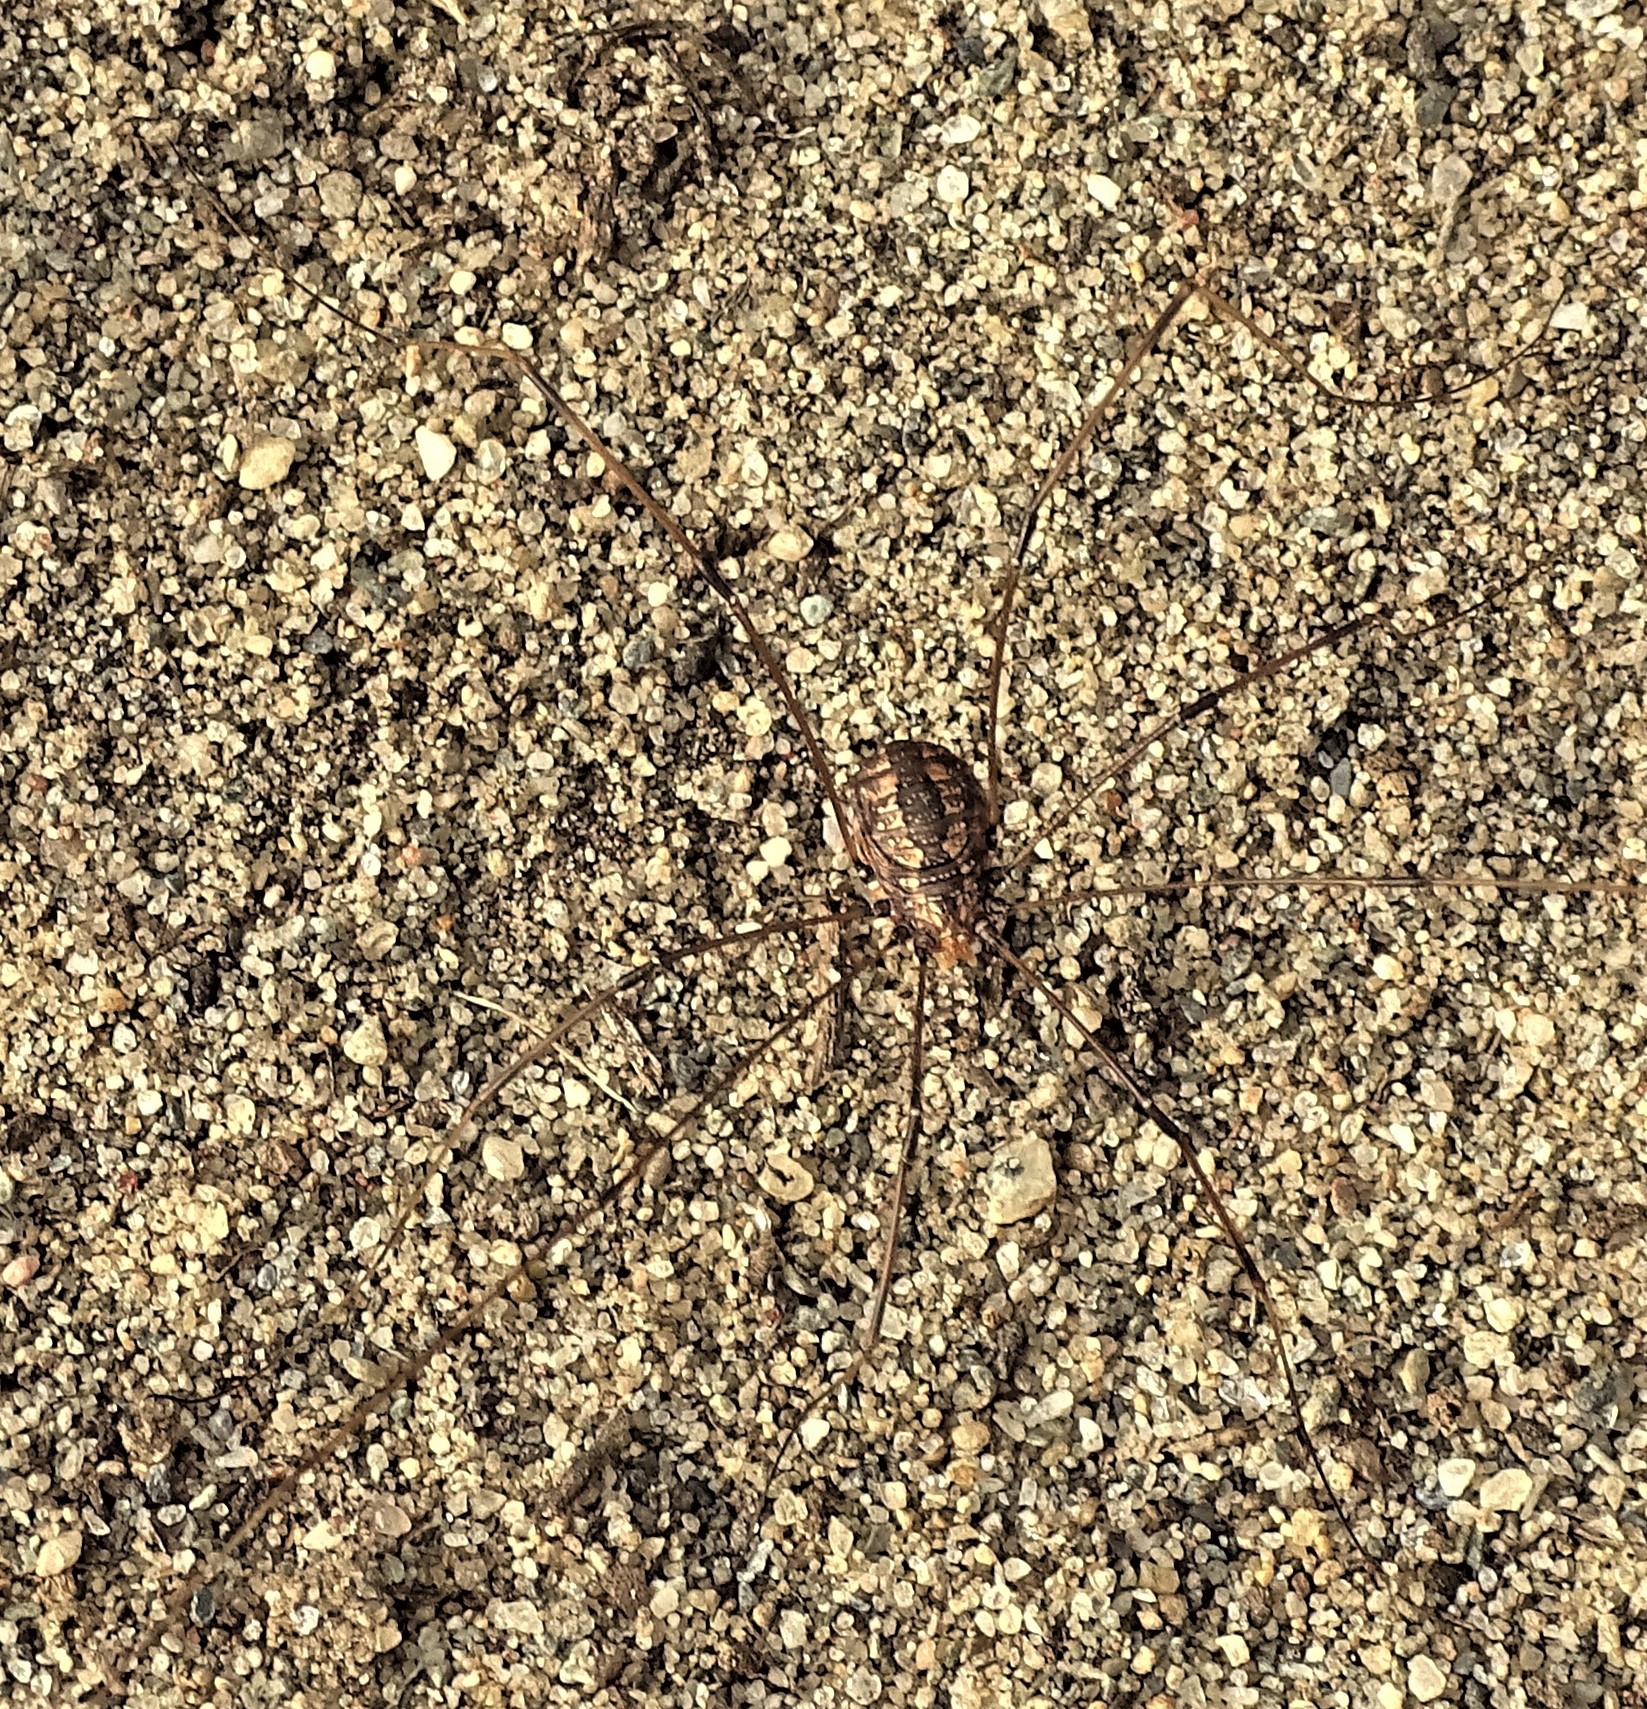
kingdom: Animalia
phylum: Arthropoda
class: Arachnida
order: Opiliones
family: Sclerosomatidae
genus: Leiobunum
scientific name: Leiobunum vittatum
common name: Eastern harvestman
